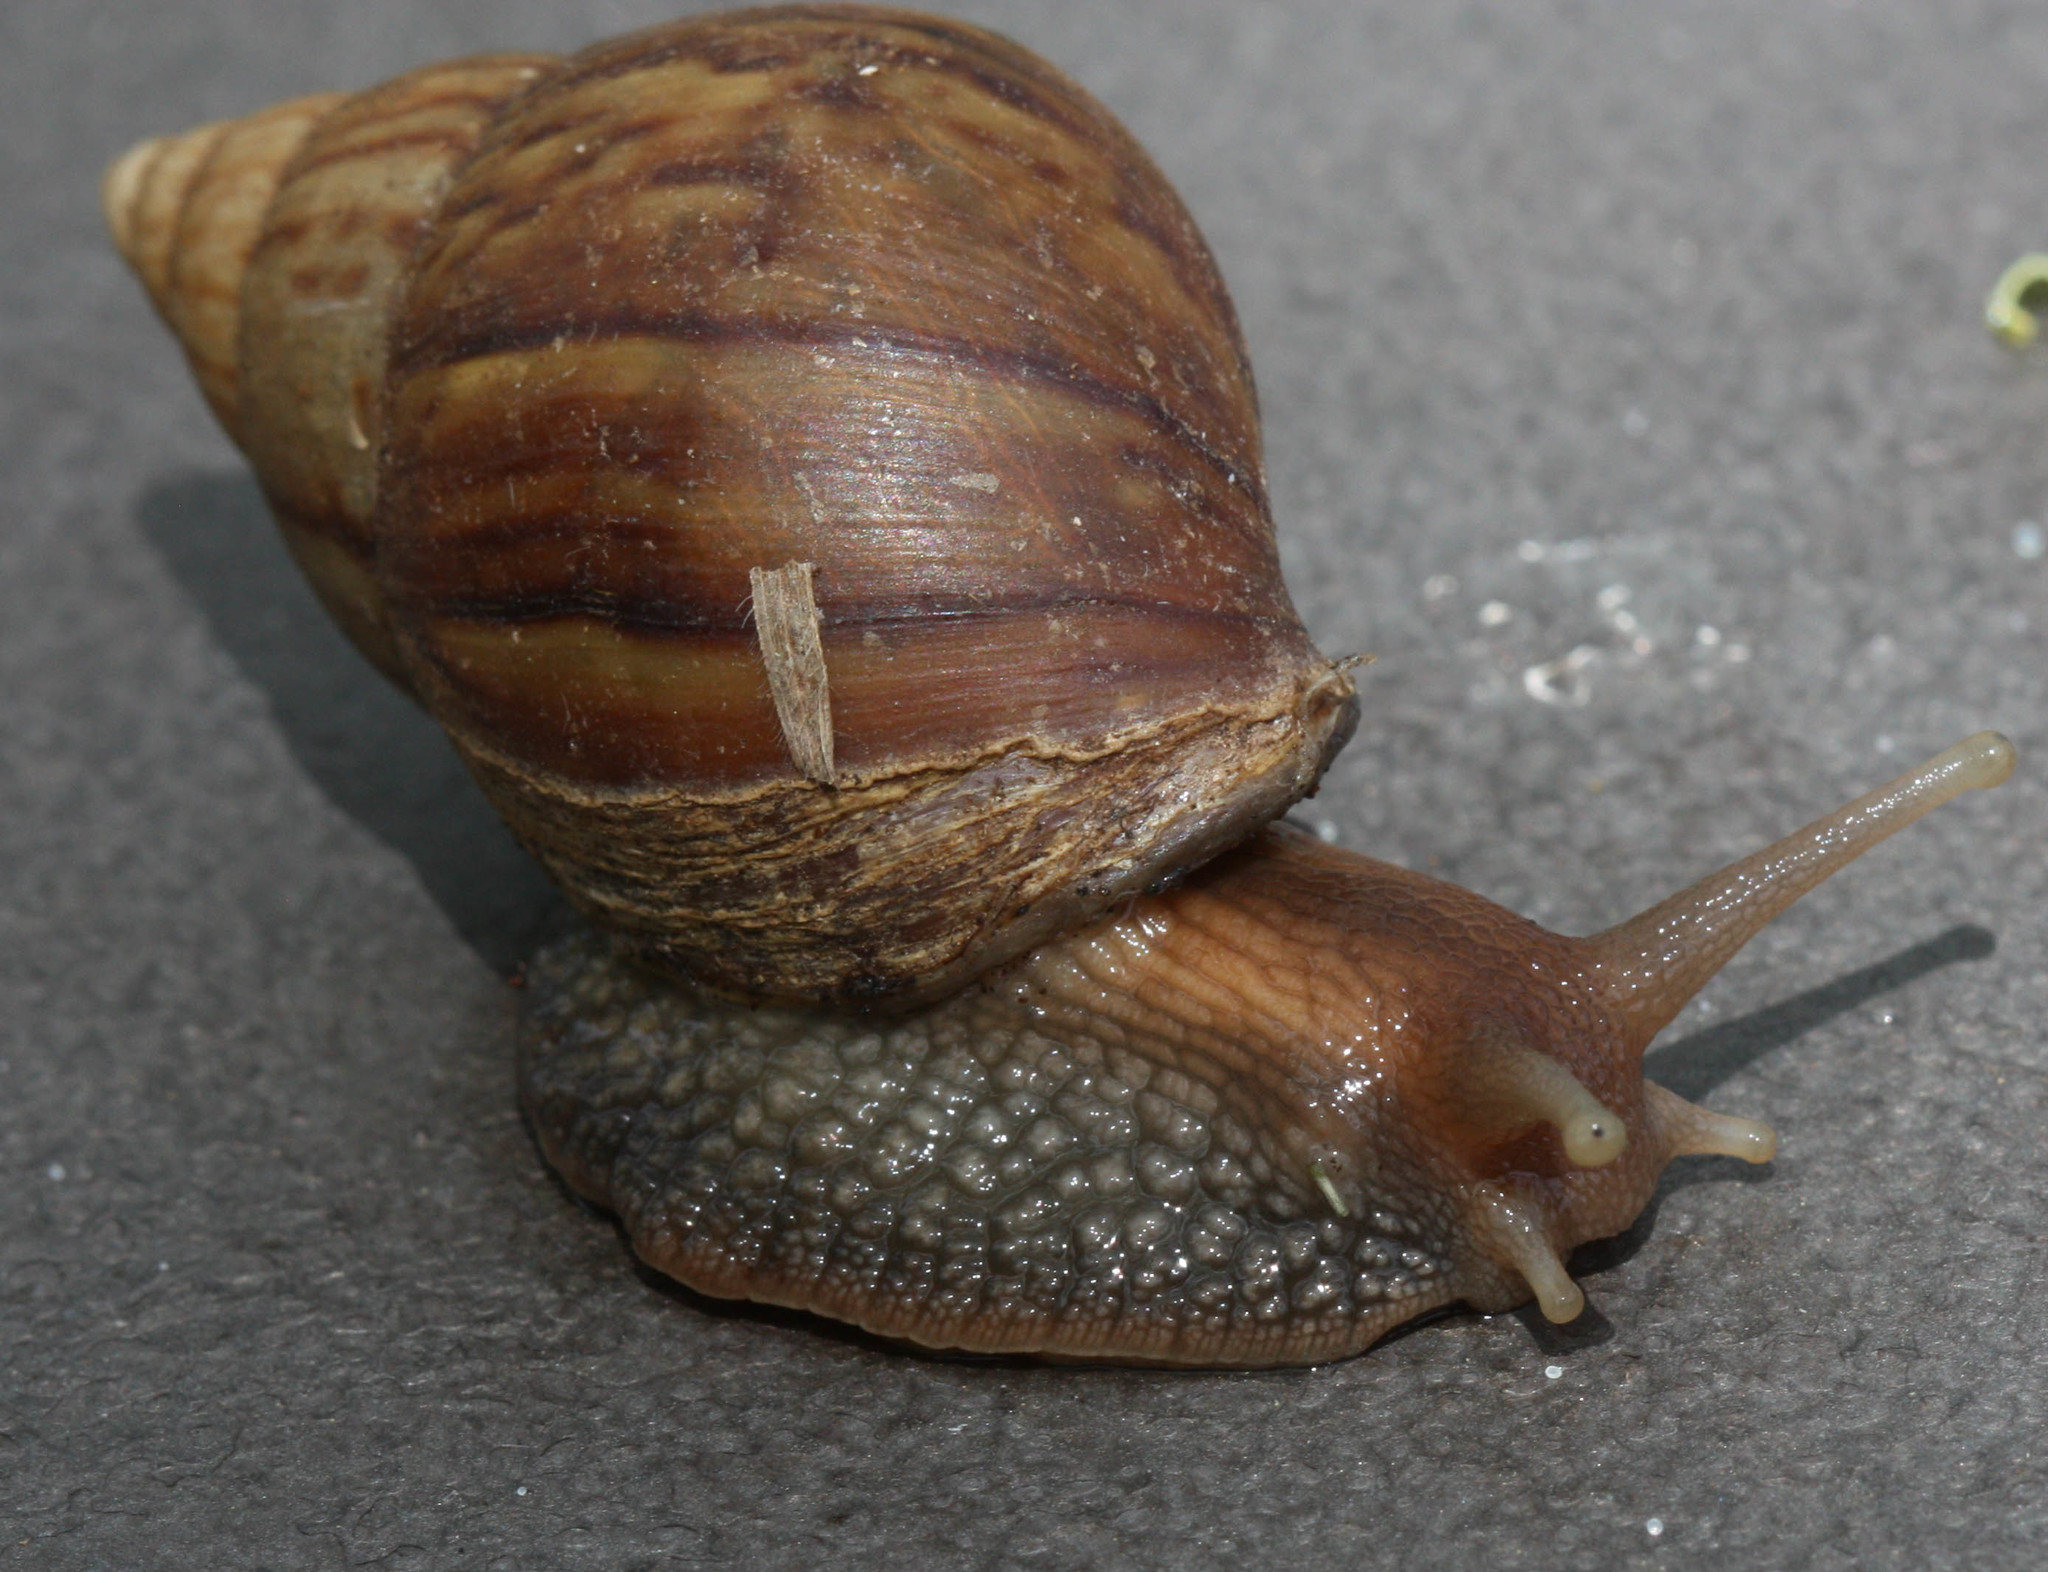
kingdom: Animalia
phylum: Mollusca
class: Gastropoda
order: Stylommatophora
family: Achatinidae
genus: Lissachatina
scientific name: Lissachatina fulica
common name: Giant african snail
